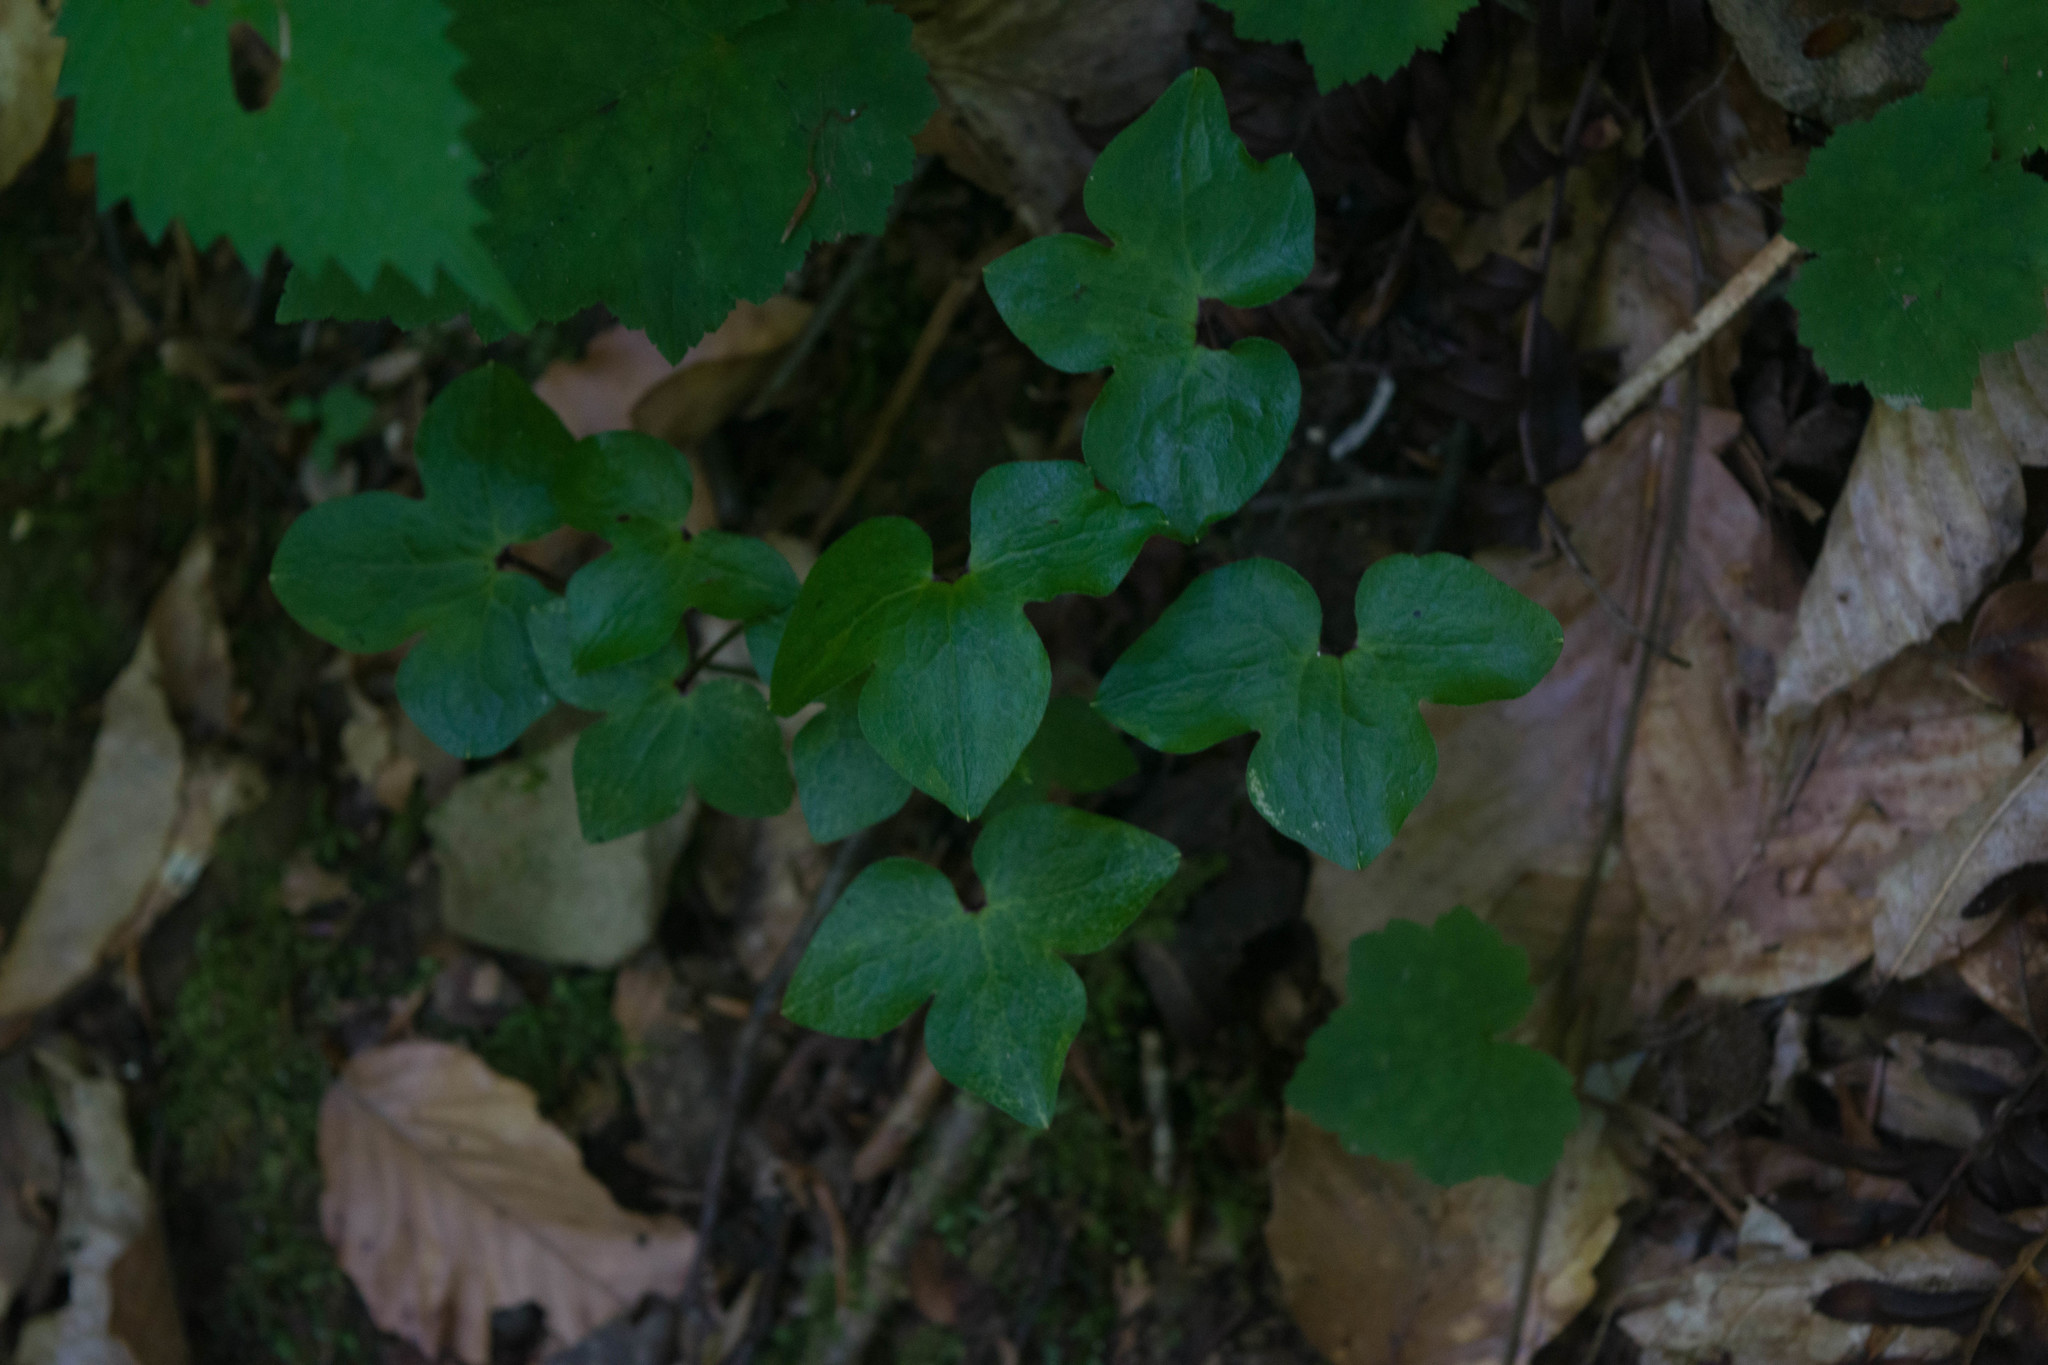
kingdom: Plantae
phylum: Tracheophyta
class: Magnoliopsida
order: Ranunculales
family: Ranunculaceae
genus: Hepatica
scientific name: Hepatica acutiloba
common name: Sharp-lobed hepatica
